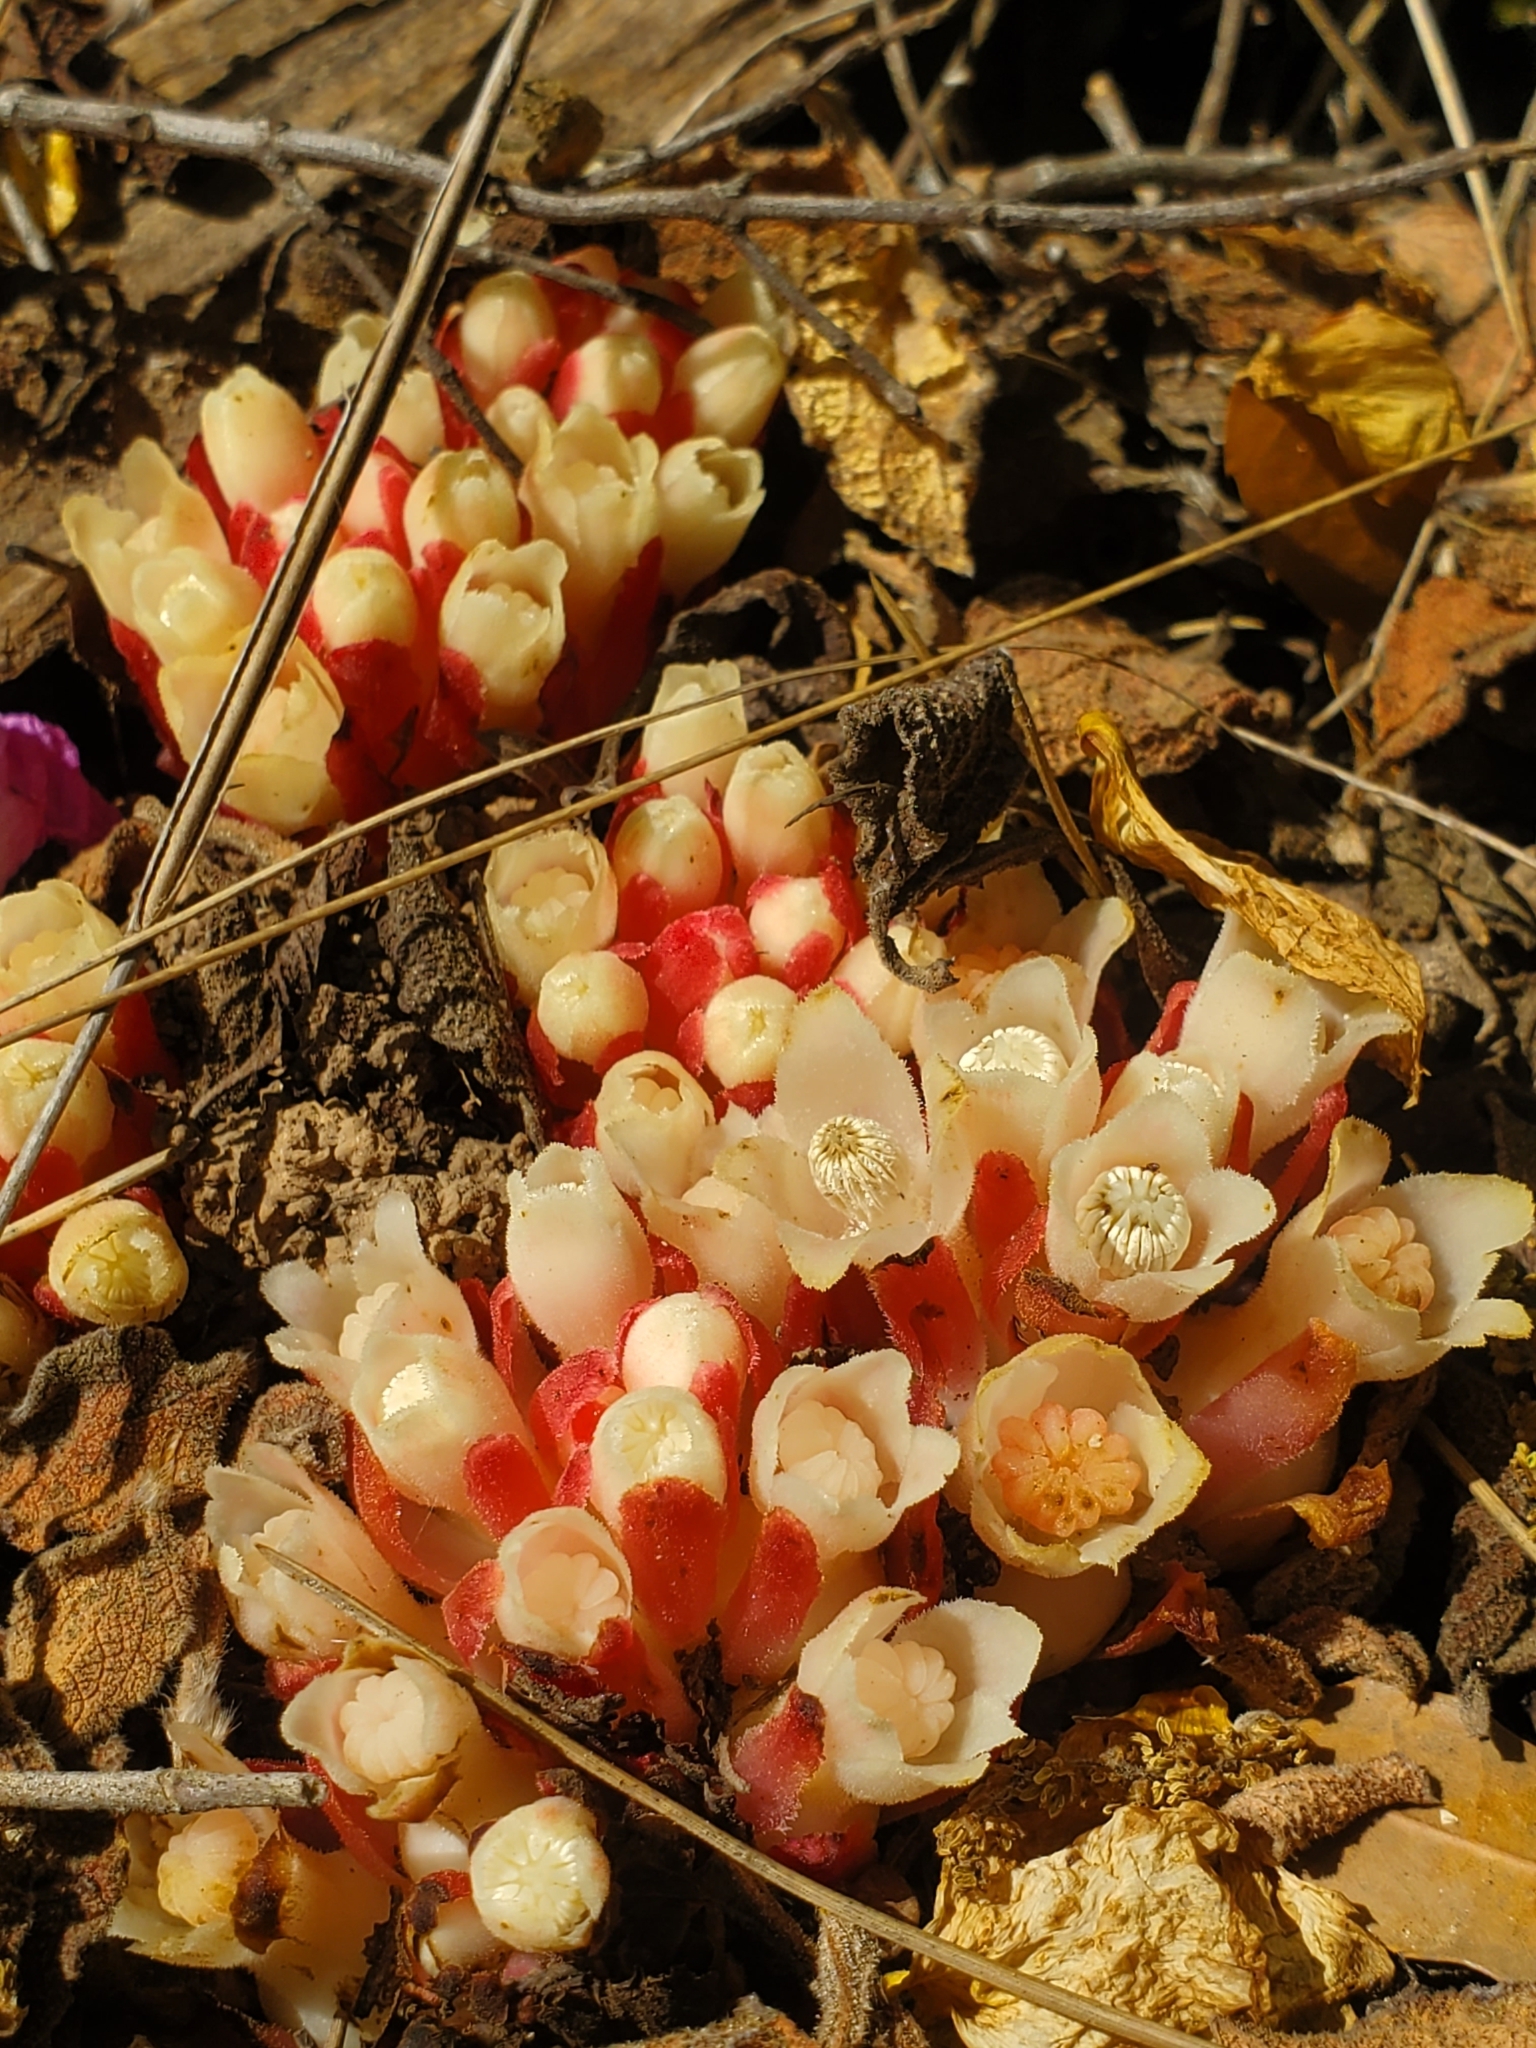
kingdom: Plantae
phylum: Tracheophyta
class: Magnoliopsida
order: Malvales
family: Cytinaceae
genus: Cytinus
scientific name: Cytinus ruber
